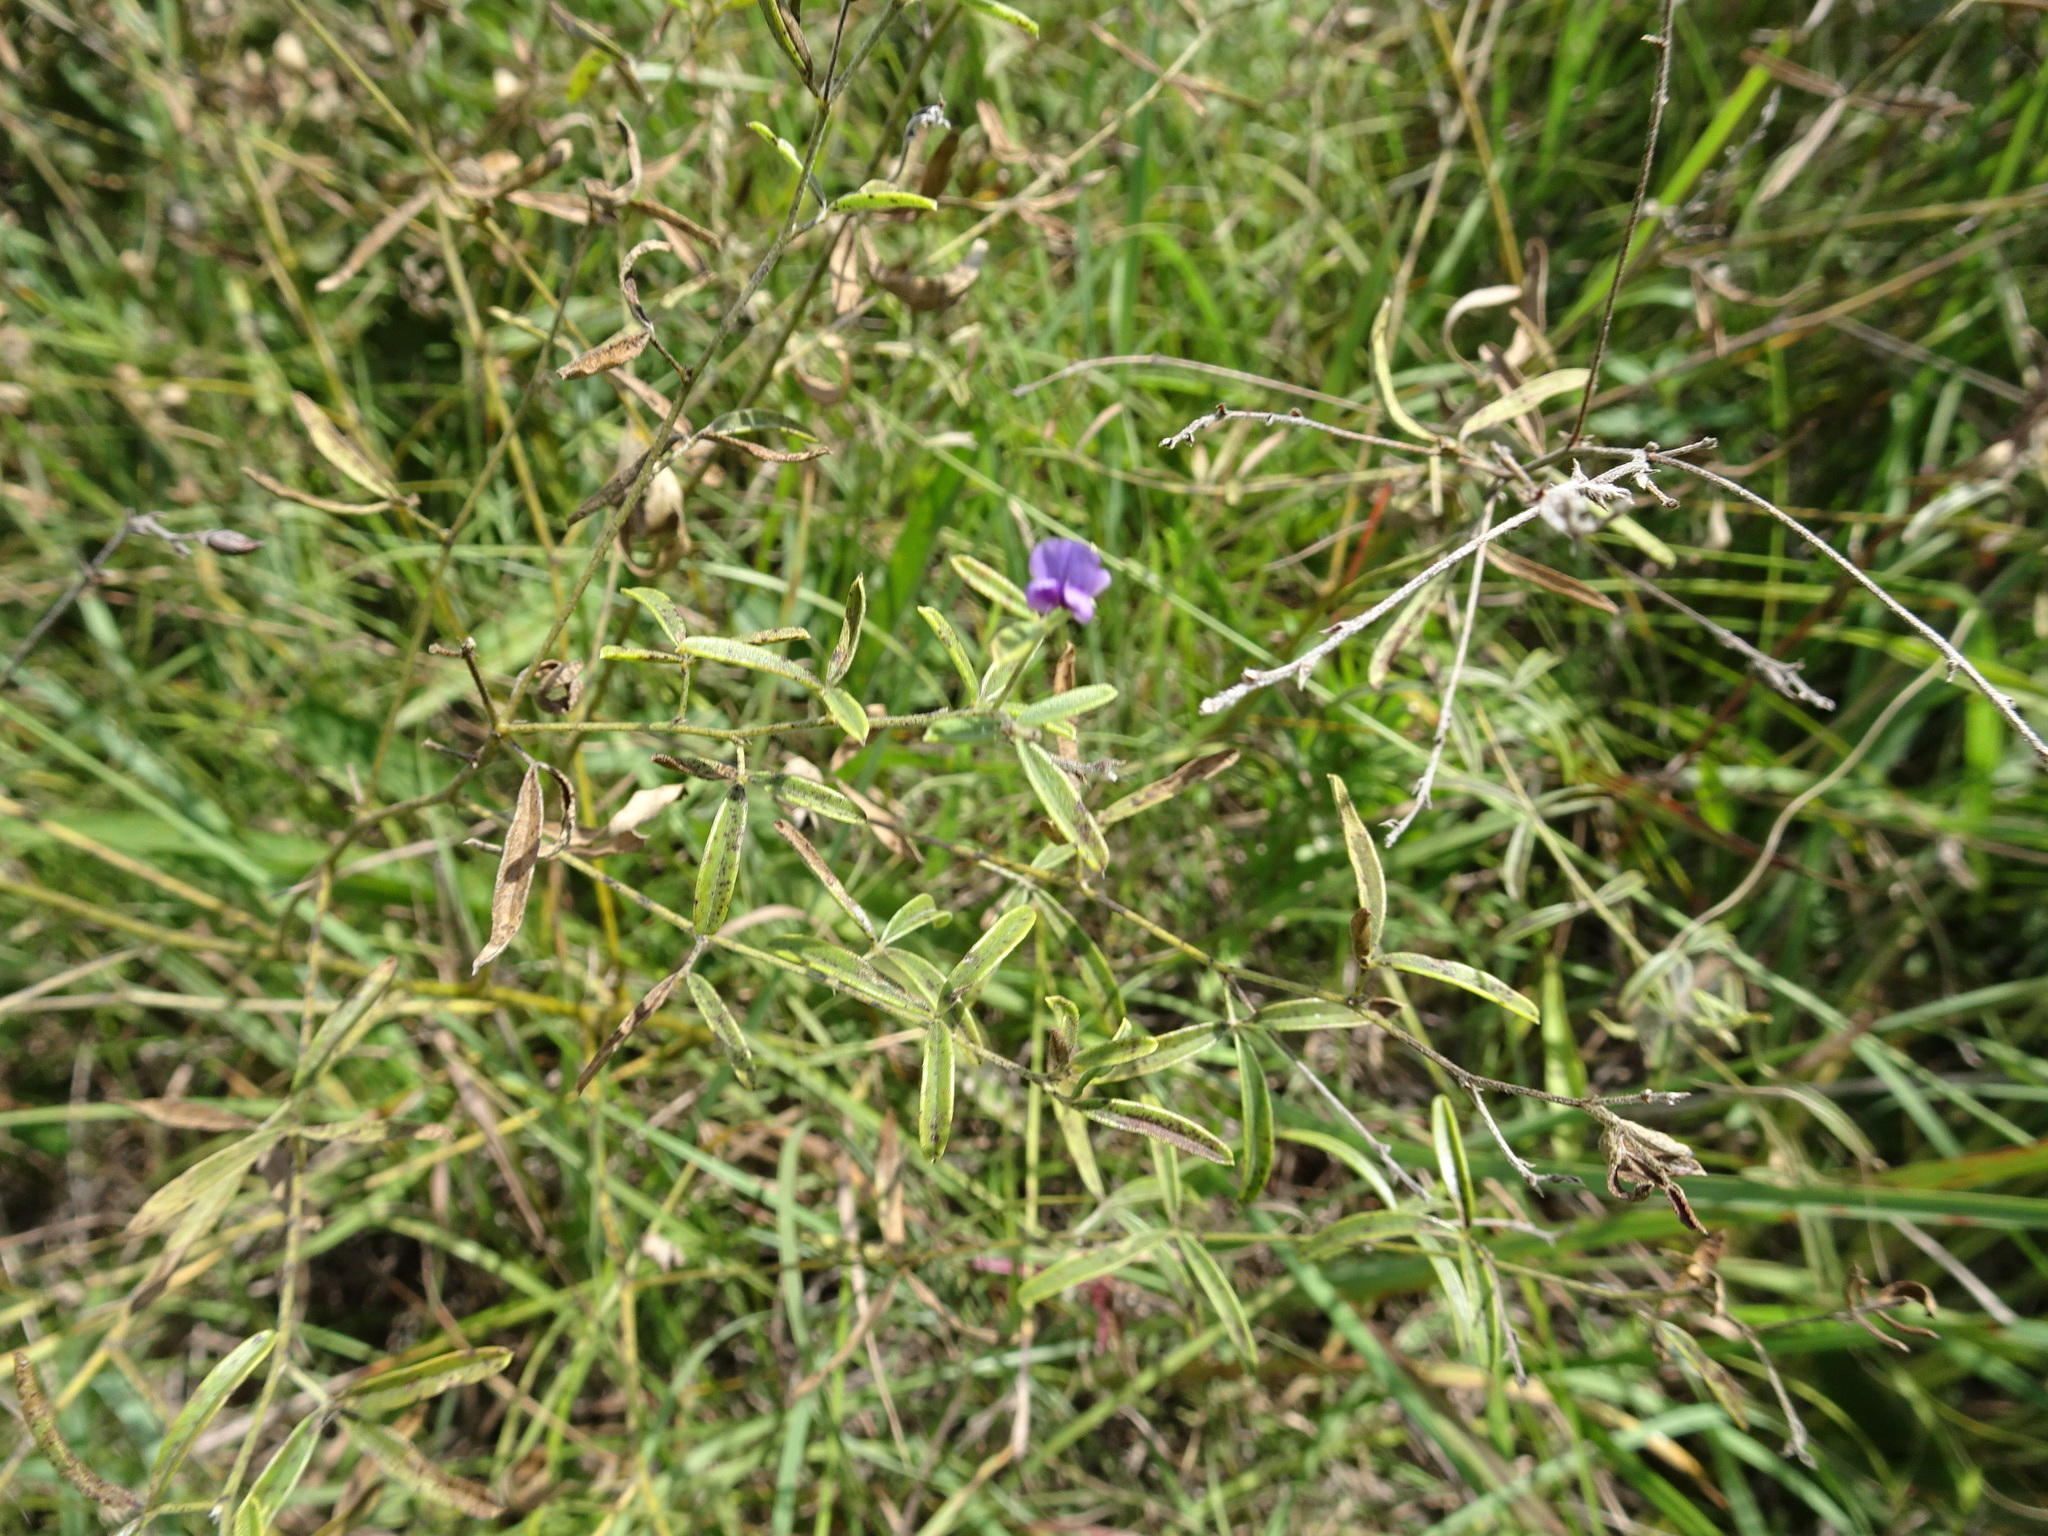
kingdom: Plantae
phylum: Tracheophyta
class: Magnoliopsida
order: Fabales
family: Fabaceae
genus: Pediomelum
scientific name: Pediomelum tenuiflorum
